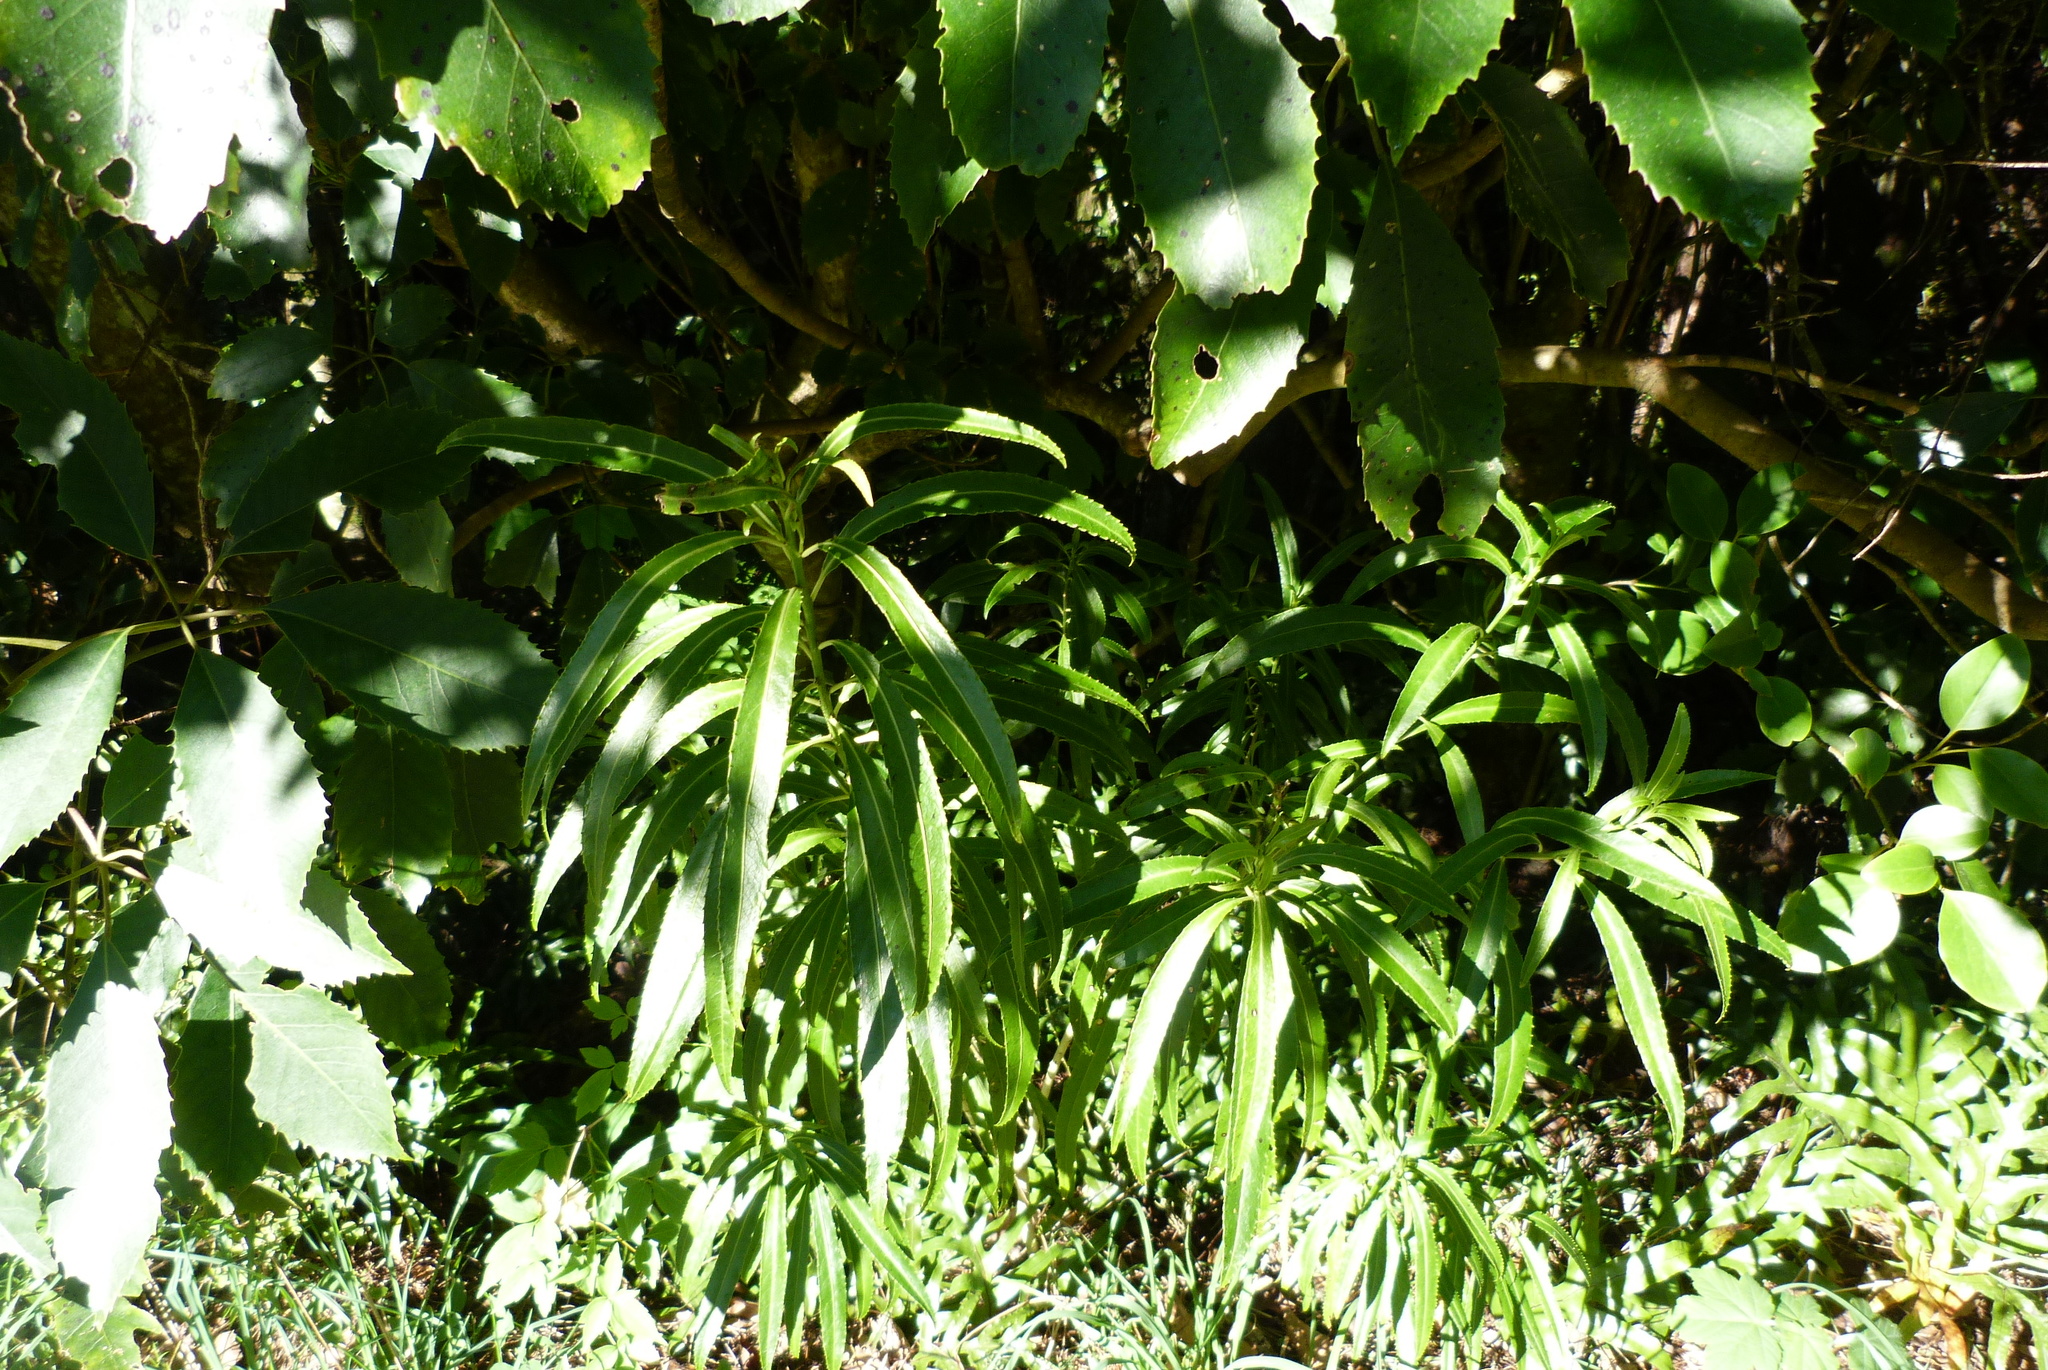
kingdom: Plantae
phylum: Tracheophyta
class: Magnoliopsida
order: Malpighiales
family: Violaceae
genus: Melicytus
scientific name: Melicytus lanceolatus
